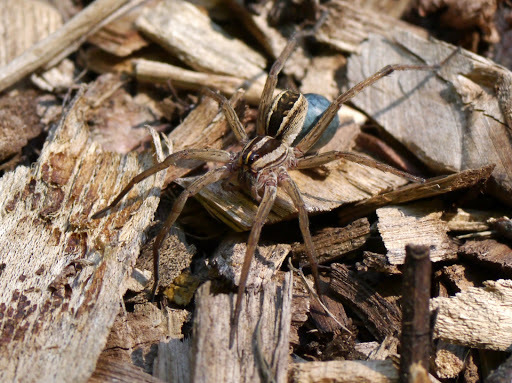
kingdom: Animalia
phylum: Arthropoda
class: Arachnida
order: Araneae
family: Lycosidae
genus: Rabidosa
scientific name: Rabidosa rabida
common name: Rabid wolf spider
